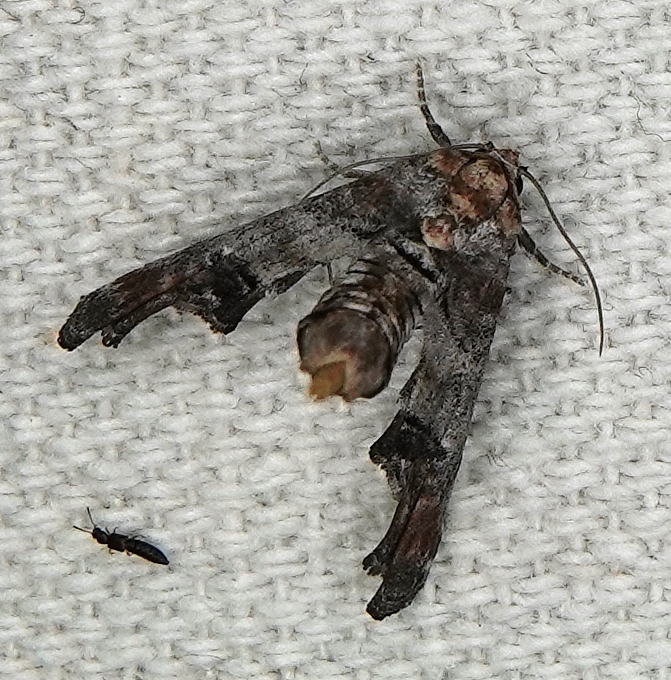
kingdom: Animalia
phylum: Arthropoda
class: Insecta
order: Lepidoptera
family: Euteliidae
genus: Marathyssa
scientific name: Marathyssa inficita
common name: Dark marathyssa moth
